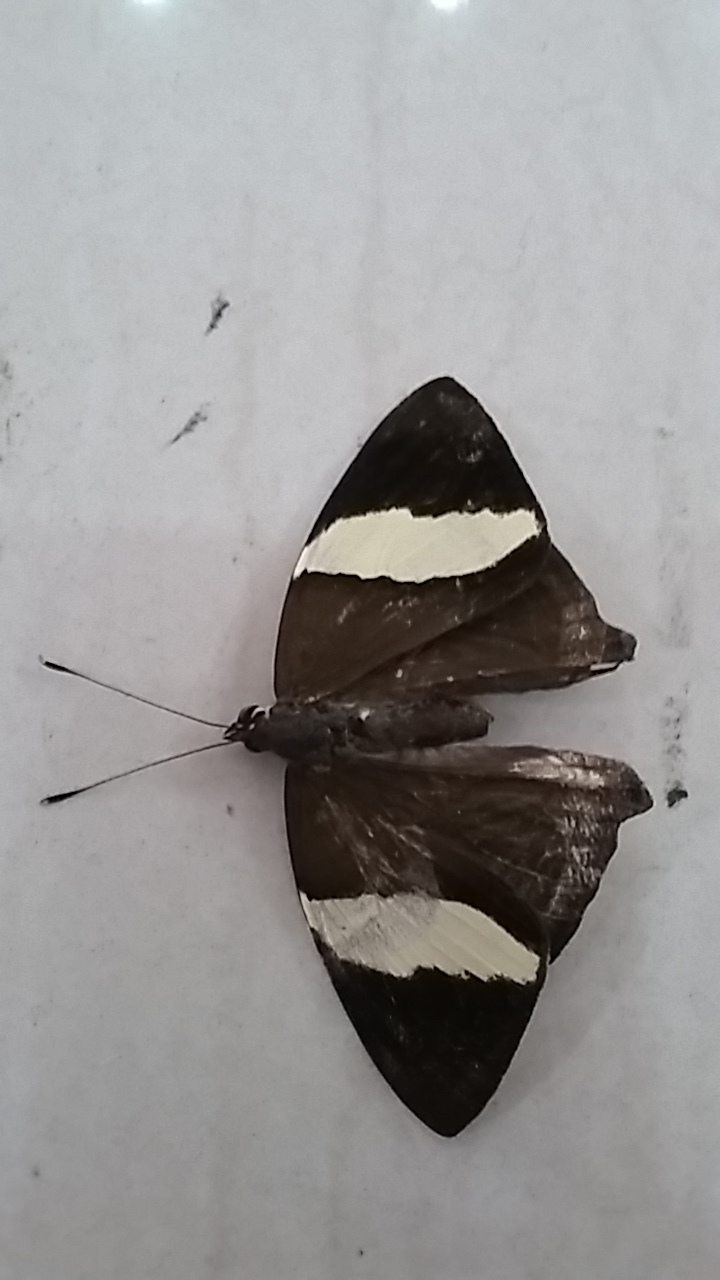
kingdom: Animalia
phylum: Arthropoda
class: Insecta
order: Lepidoptera
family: Nymphalidae
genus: Colobura
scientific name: Colobura dirce
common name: Dirce beauty
